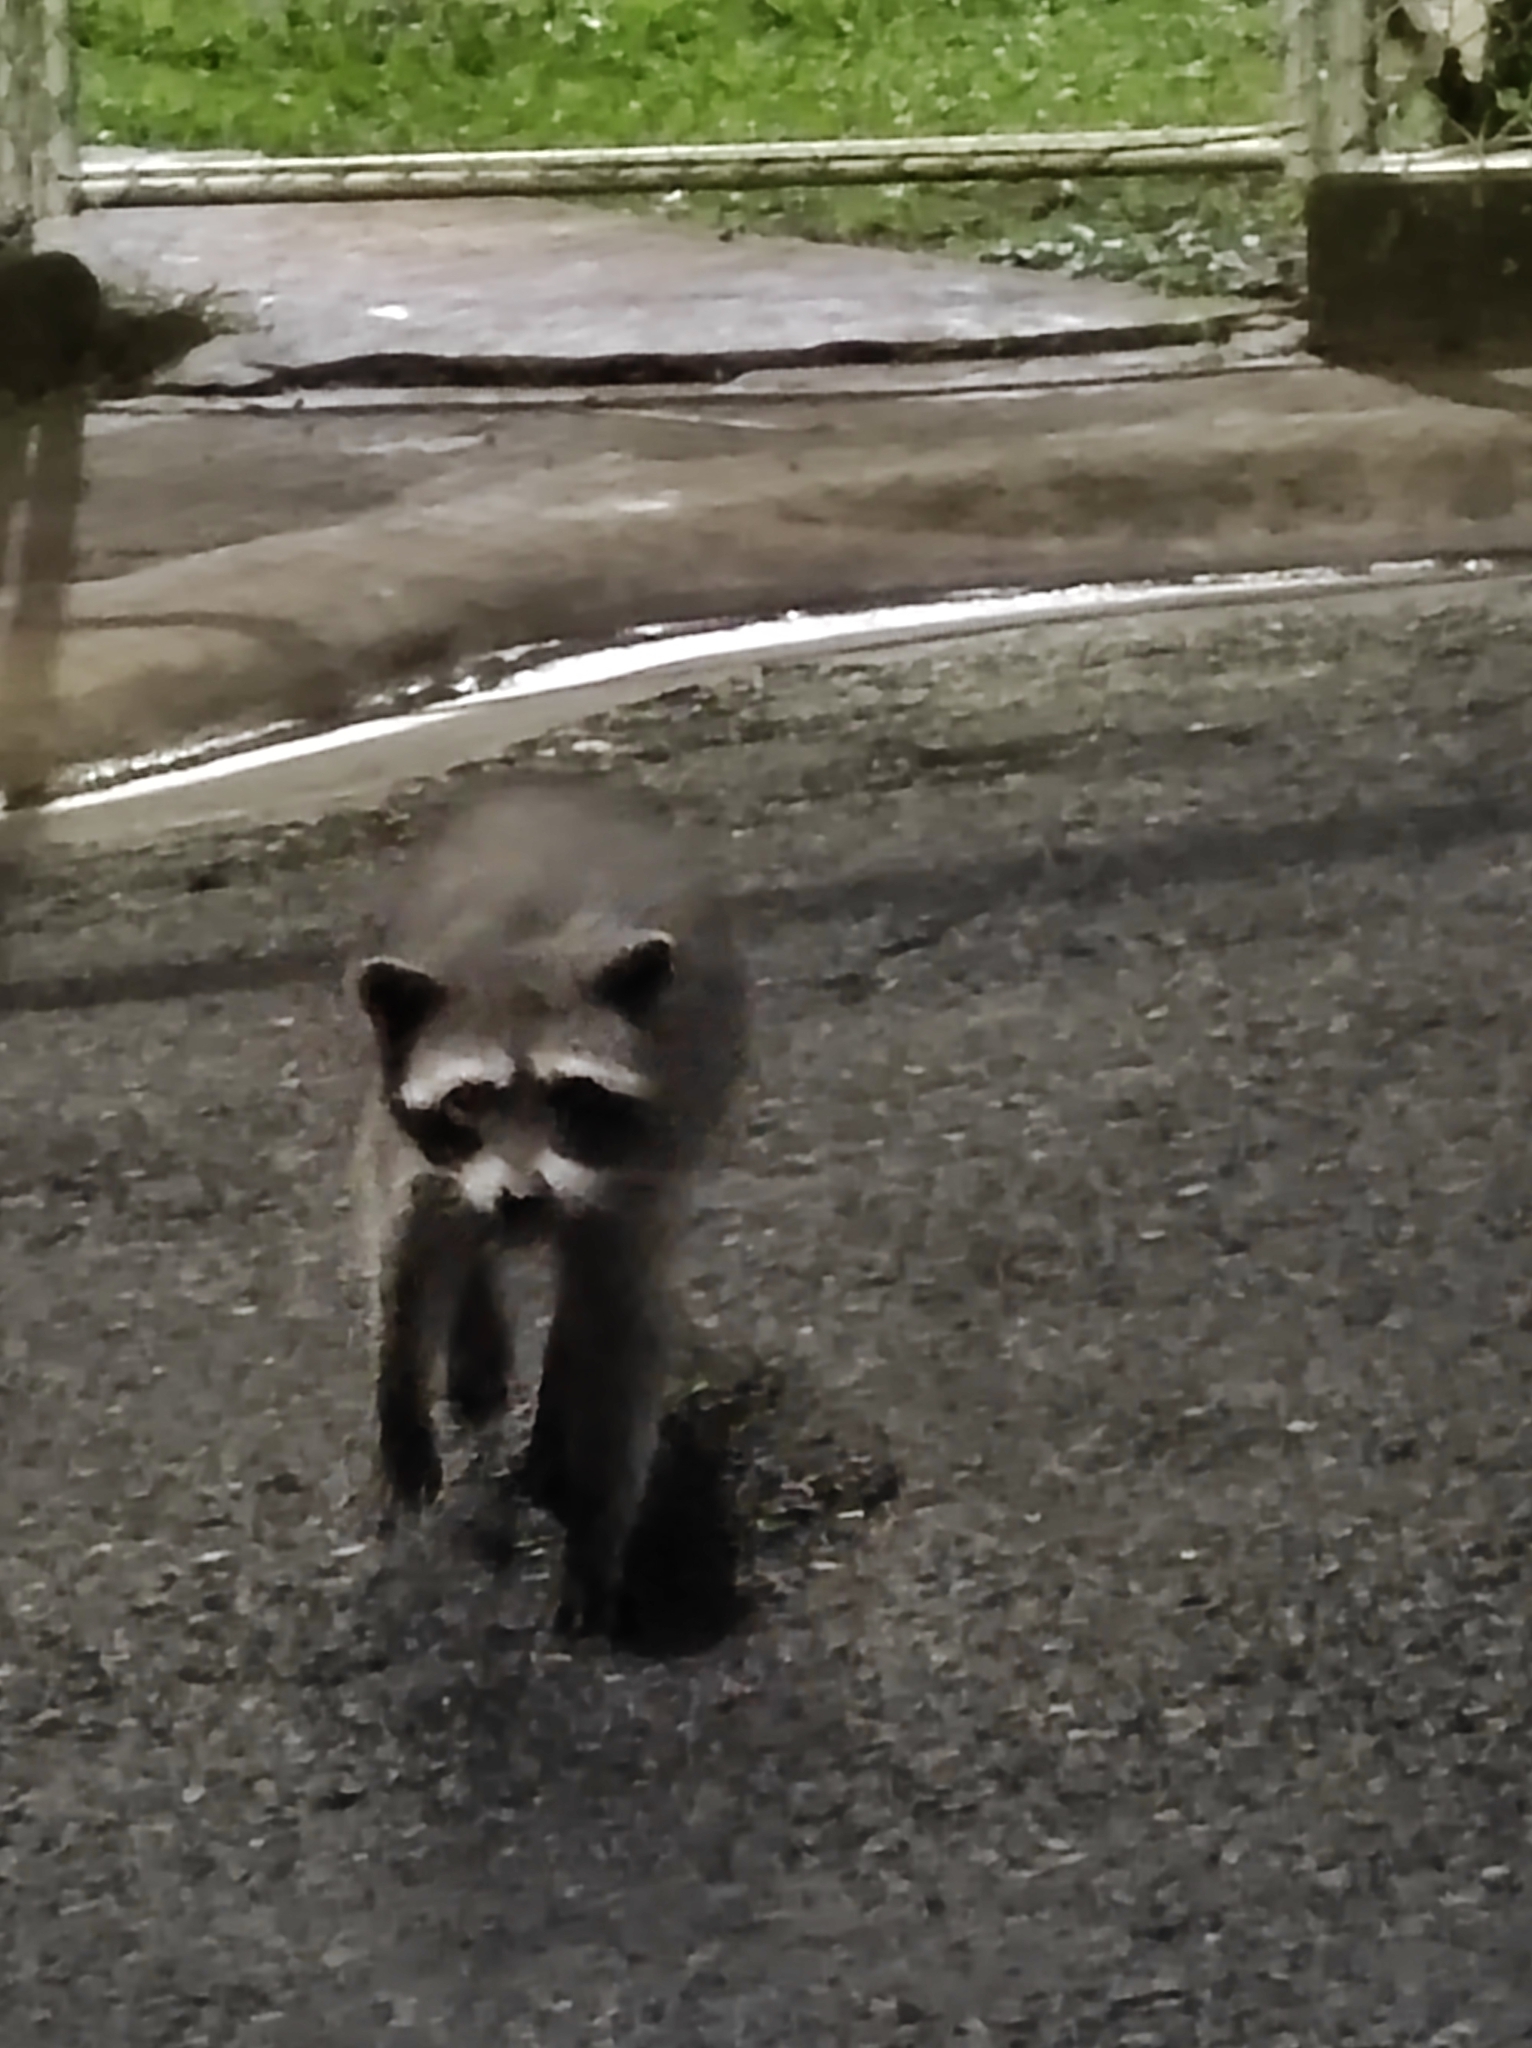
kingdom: Animalia
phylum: Chordata
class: Mammalia
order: Carnivora
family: Procyonidae
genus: Procyon
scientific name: Procyon lotor
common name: Raccoon
